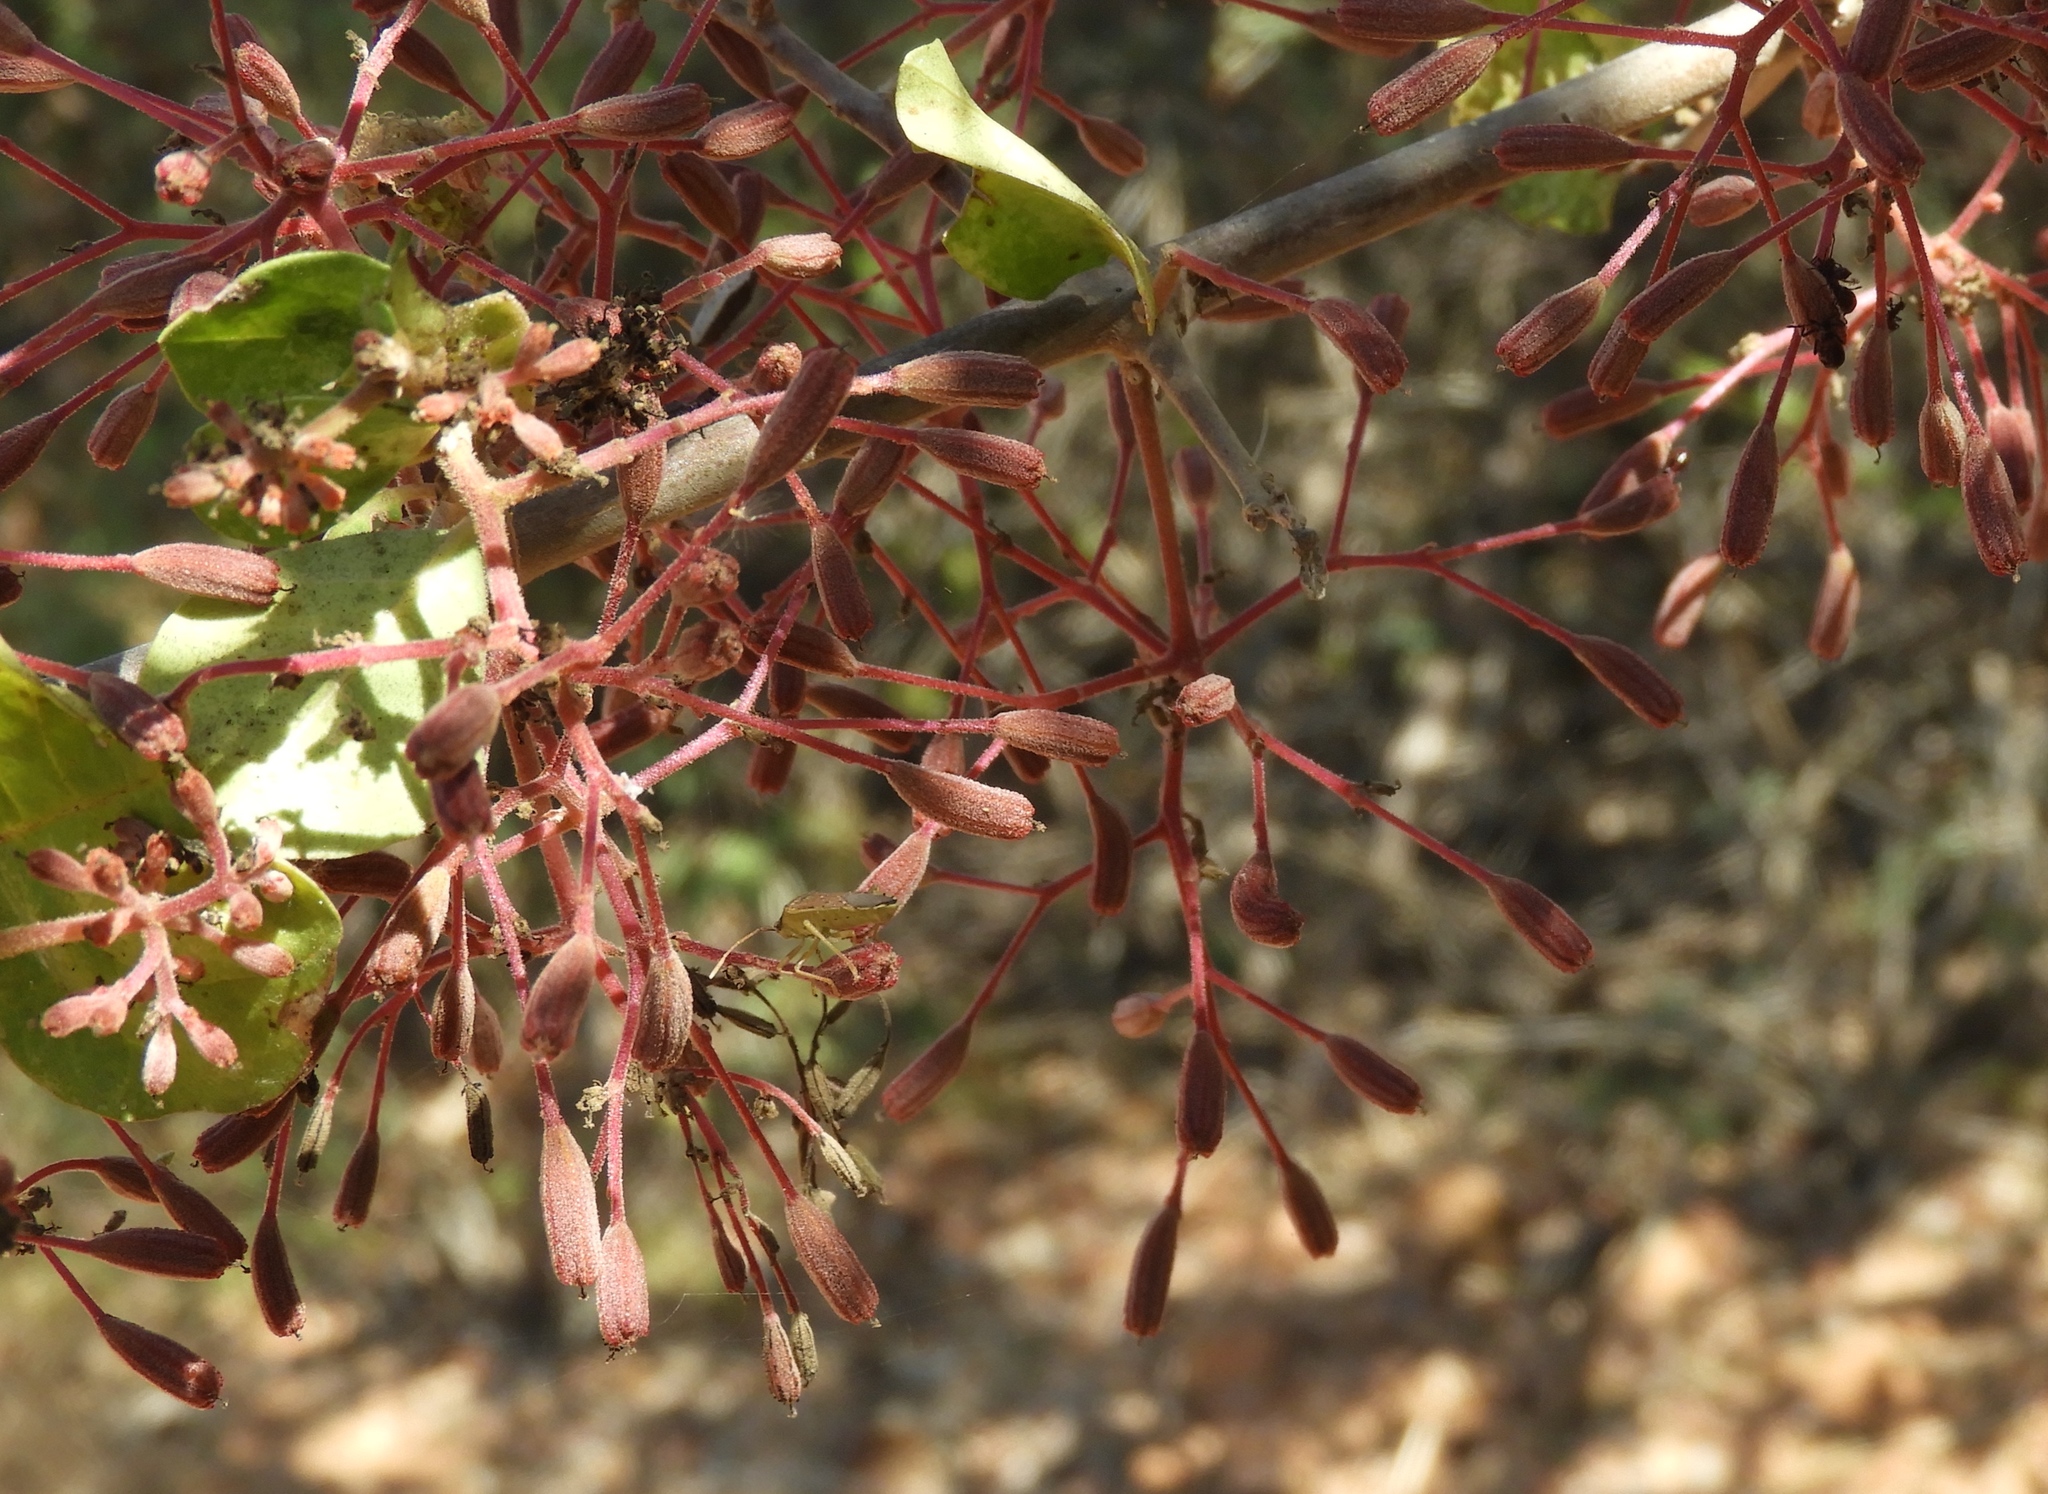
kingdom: Plantae
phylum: Tracheophyta
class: Magnoliopsida
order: Caryophyllales
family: Nyctaginaceae
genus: Pisonia
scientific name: Pisonia capitata
